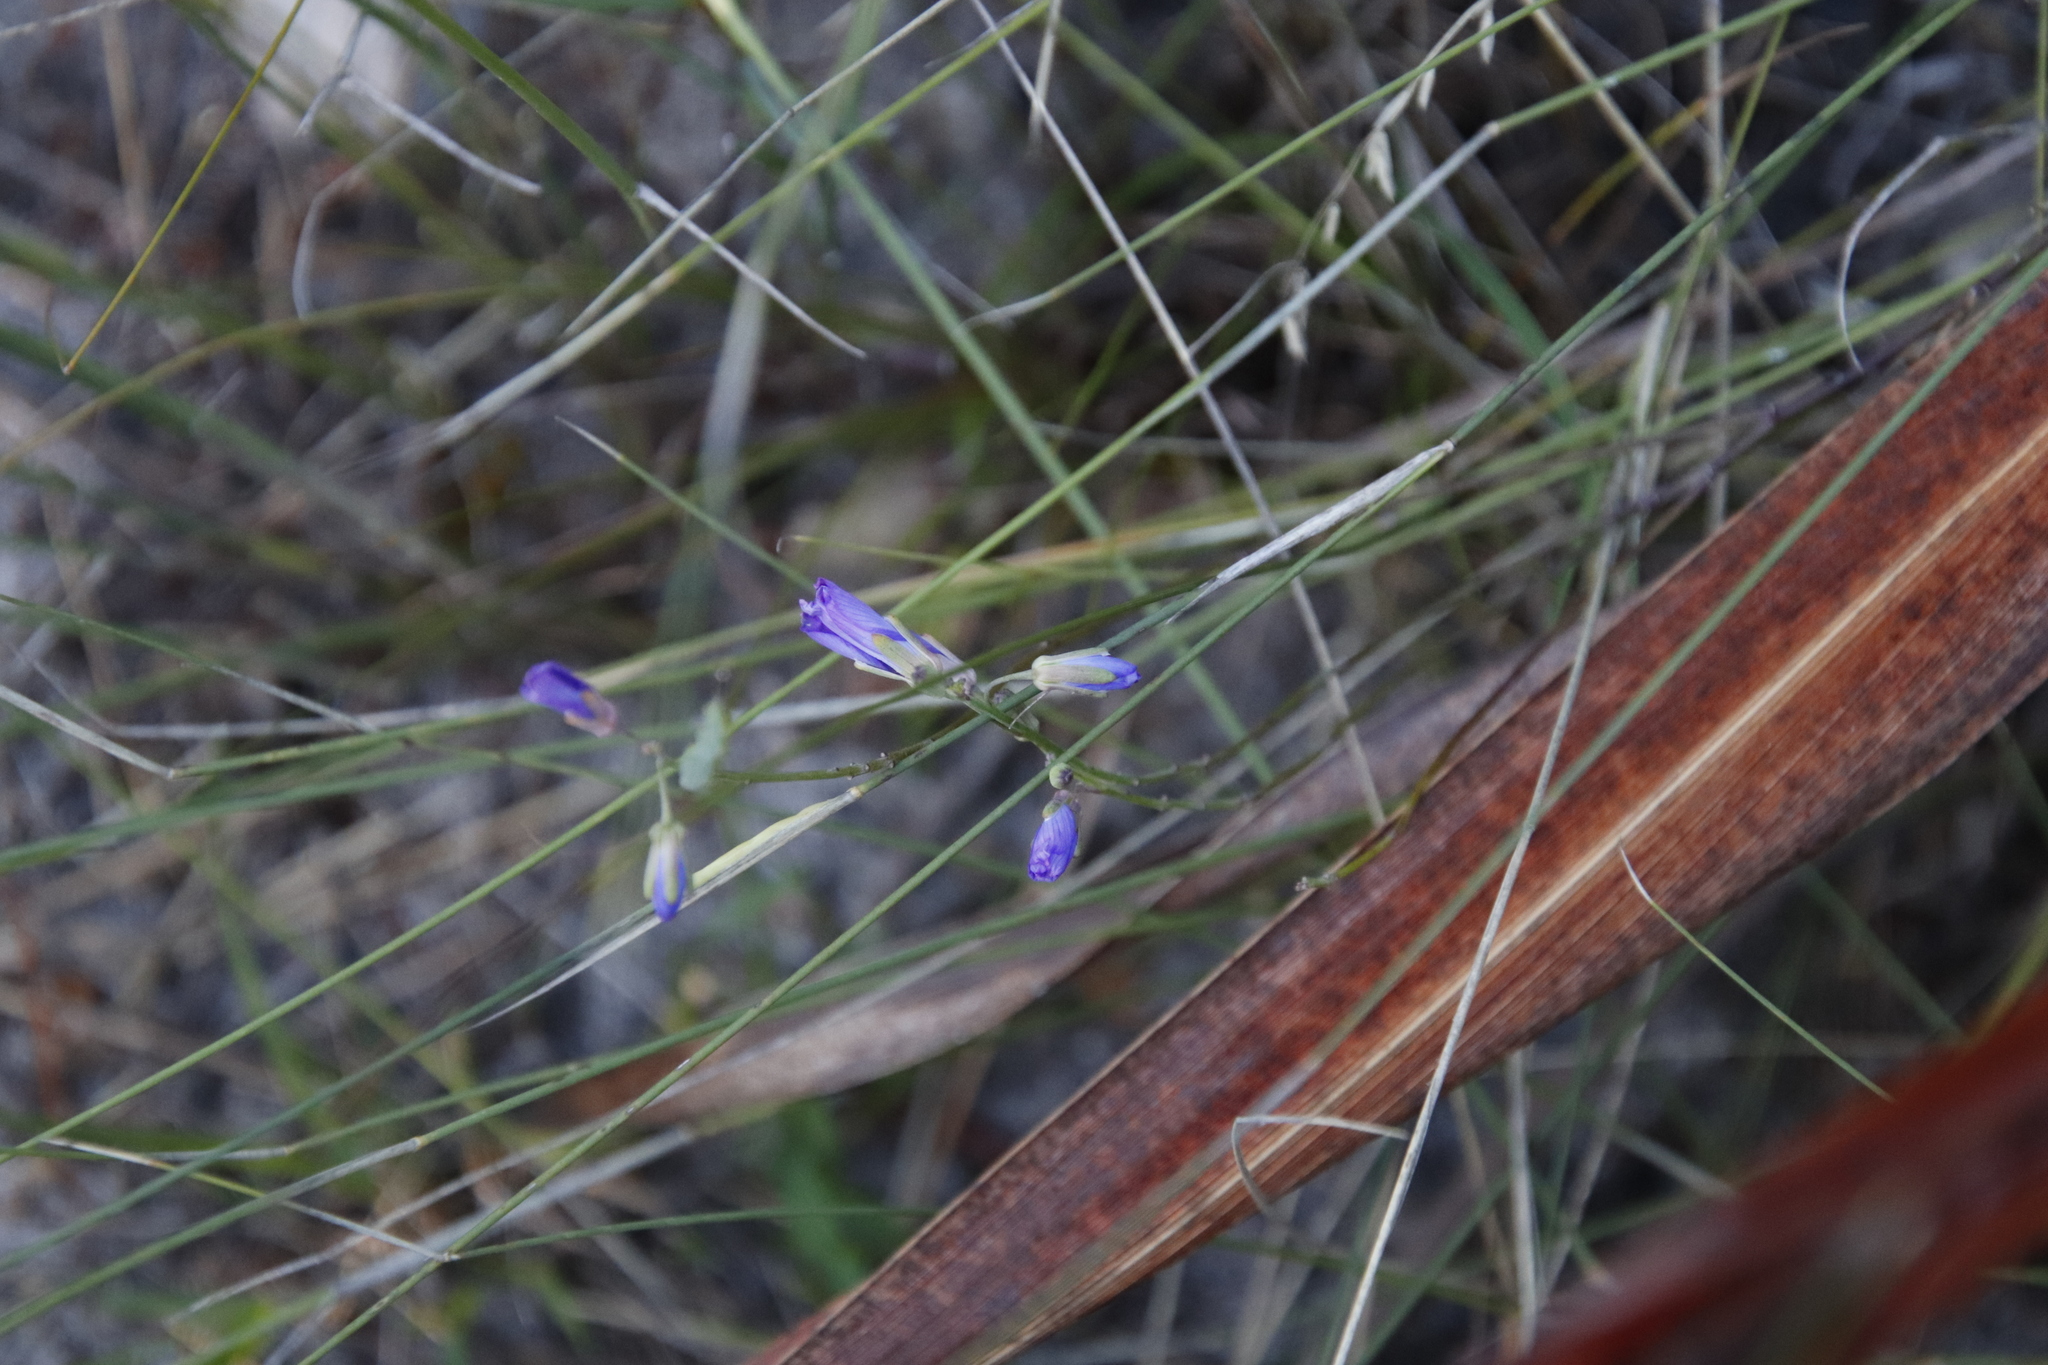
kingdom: Plantae
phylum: Tracheophyta
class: Magnoliopsida
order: Brassicales
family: Brassicaceae
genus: Heliophila
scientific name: Heliophila linearis
